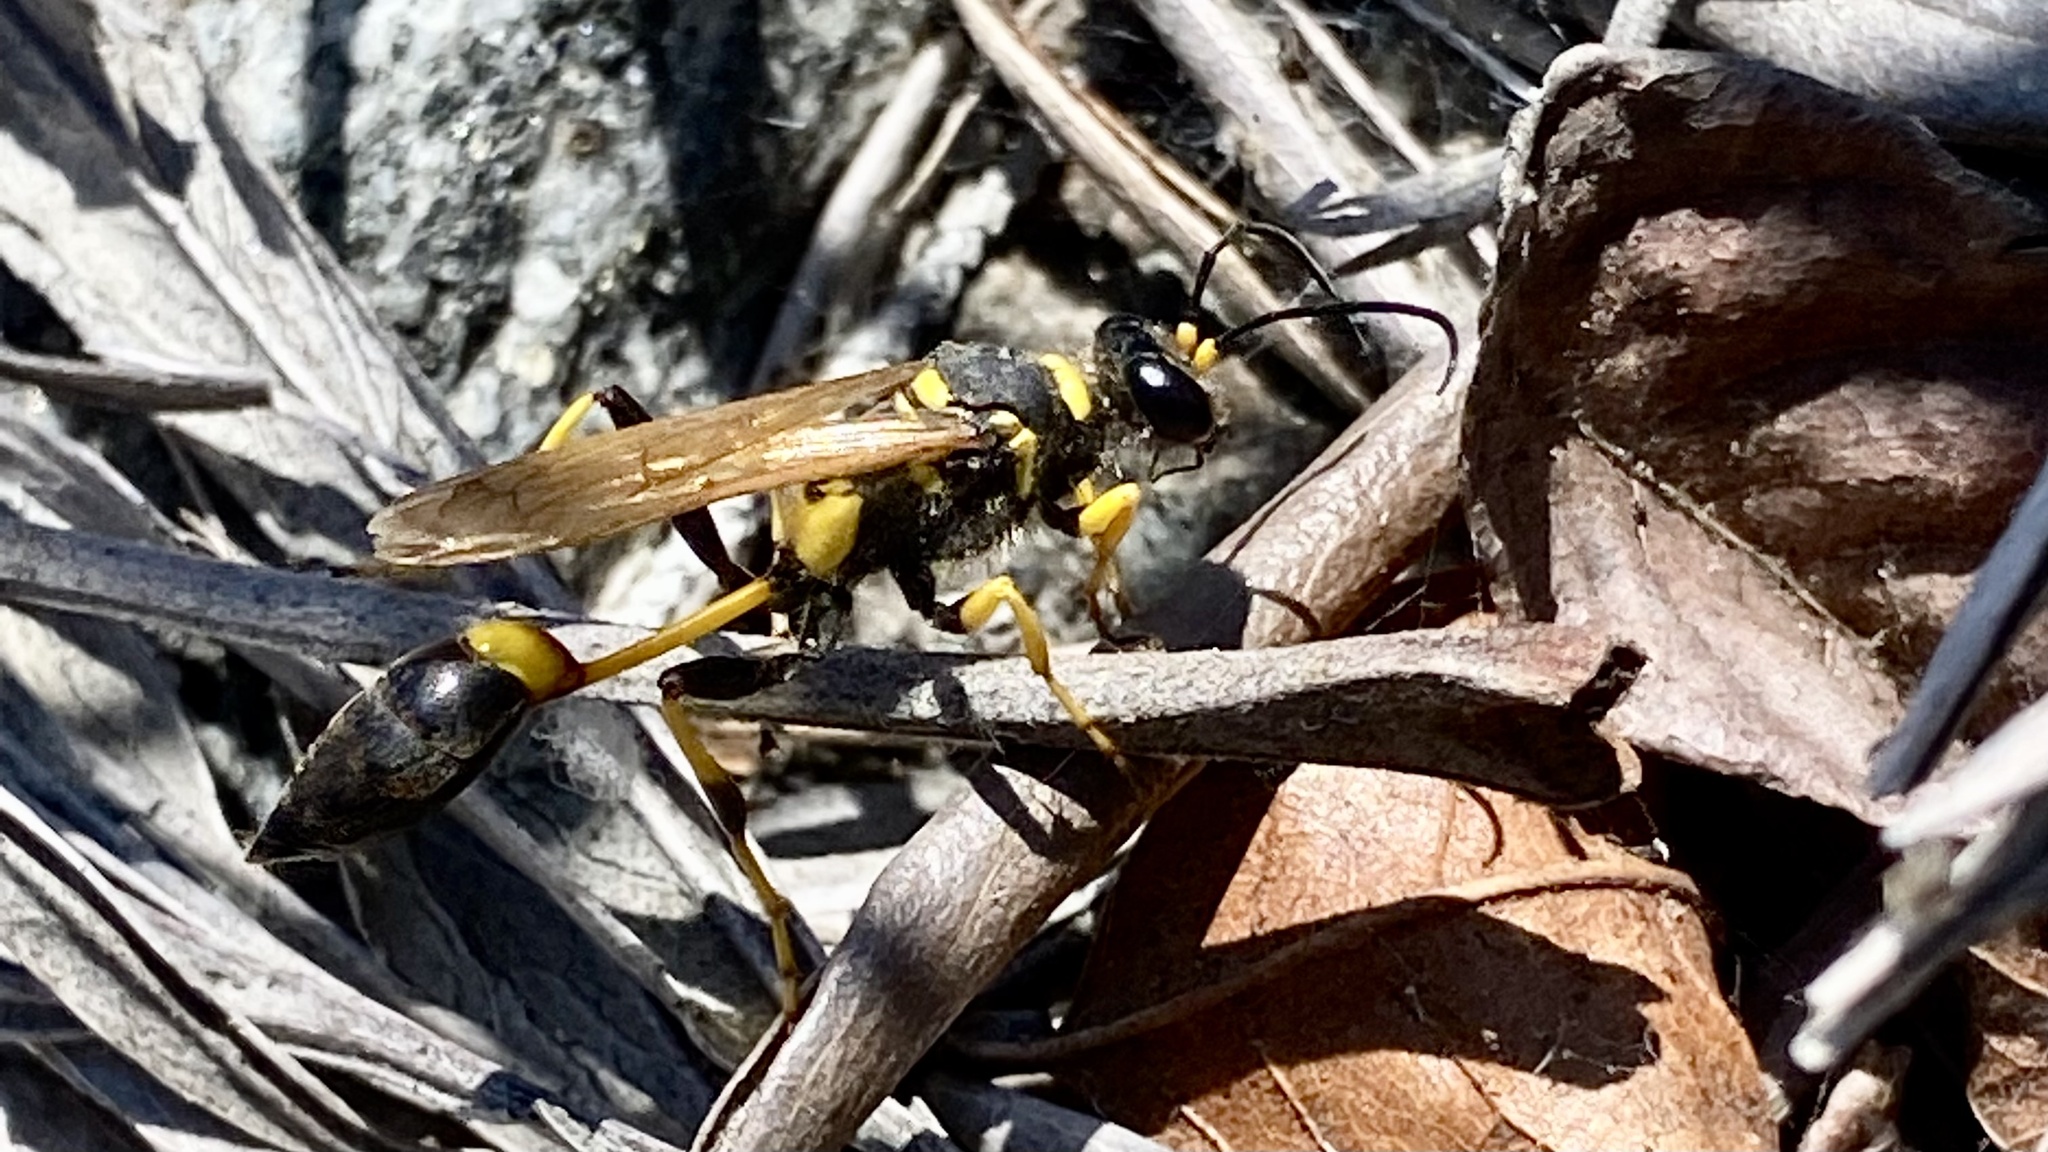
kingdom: Animalia
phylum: Arthropoda
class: Insecta
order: Hymenoptera
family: Sphecidae
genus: Sceliphron
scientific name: Sceliphron caementarium
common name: Mud dauber
